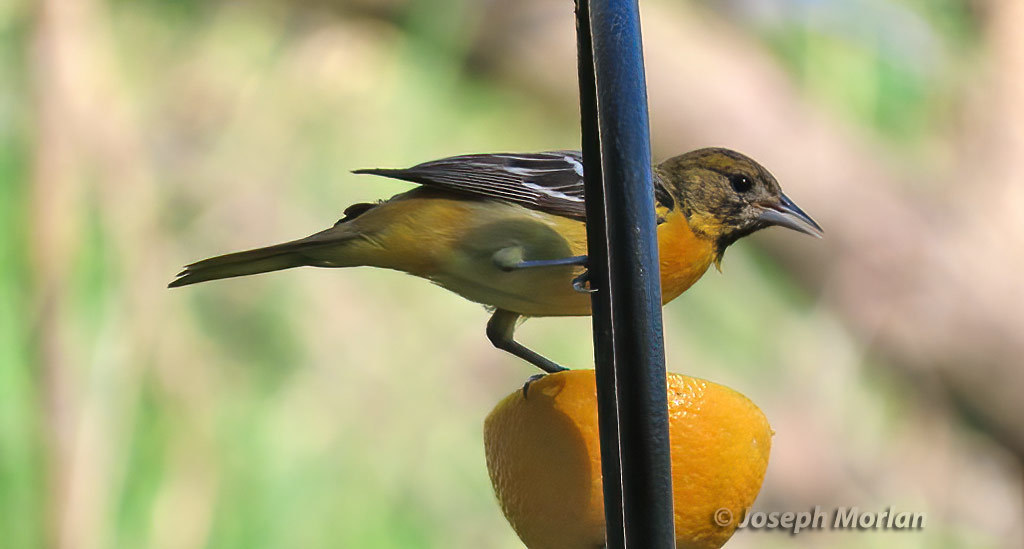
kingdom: Animalia
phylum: Chordata
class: Aves
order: Passeriformes
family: Icteridae
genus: Icterus
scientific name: Icterus galbula
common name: Baltimore oriole
